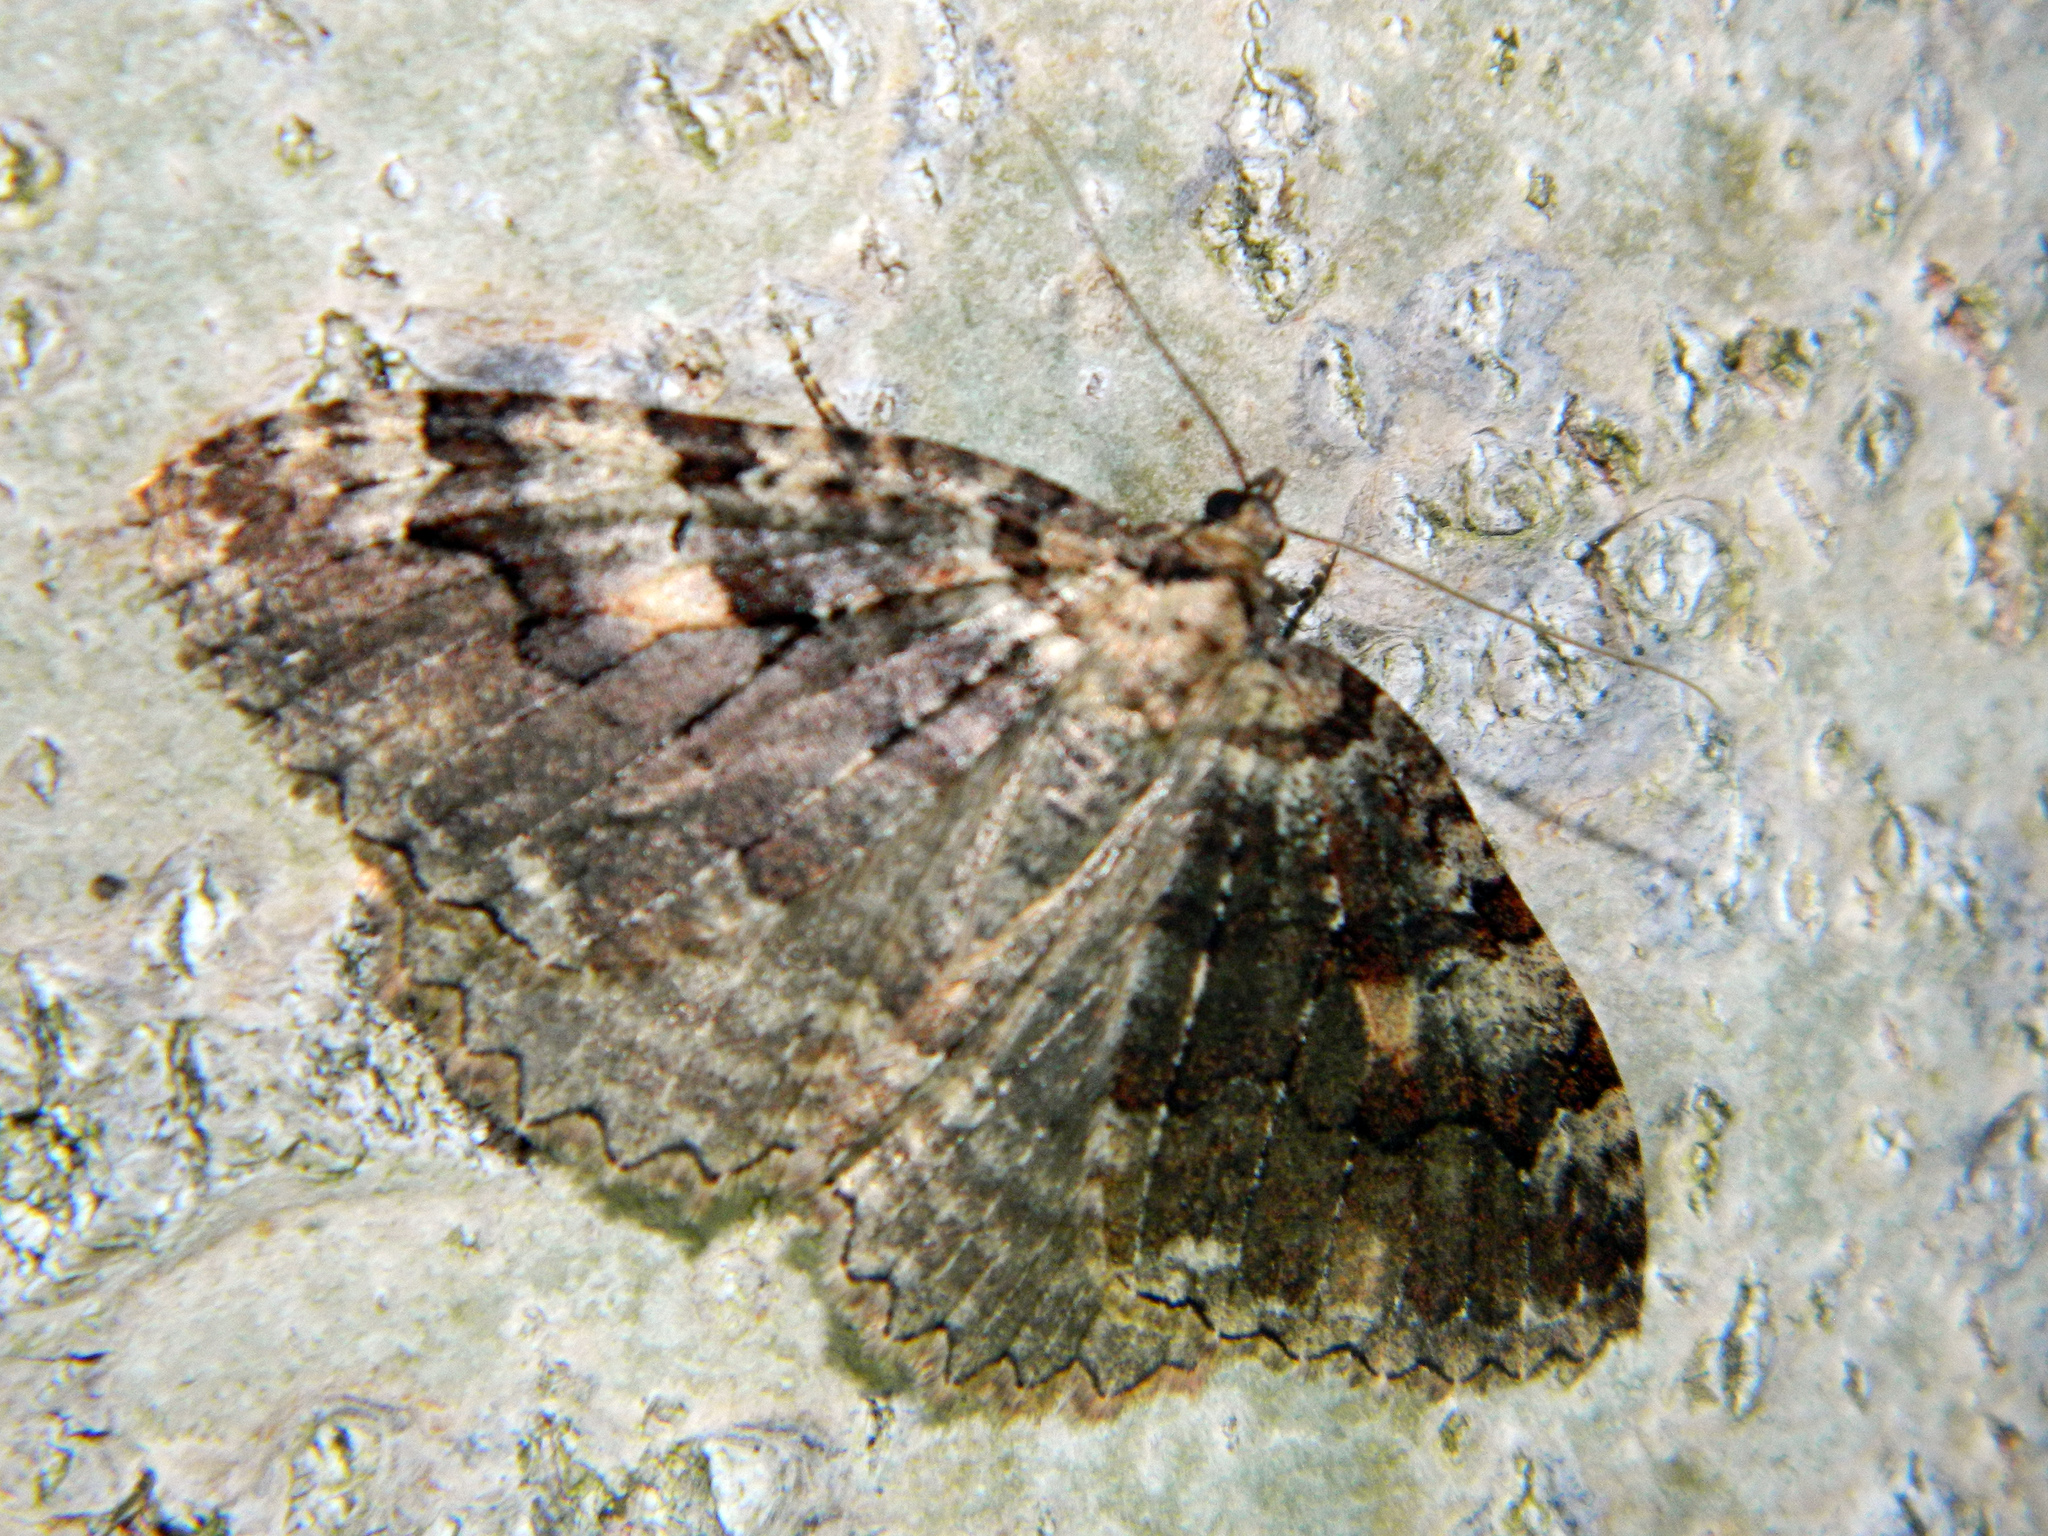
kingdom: Animalia
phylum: Arthropoda
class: Insecta
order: Lepidoptera
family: Geometridae
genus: Triphosa
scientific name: Triphosa haesitata
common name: Tissue moth
